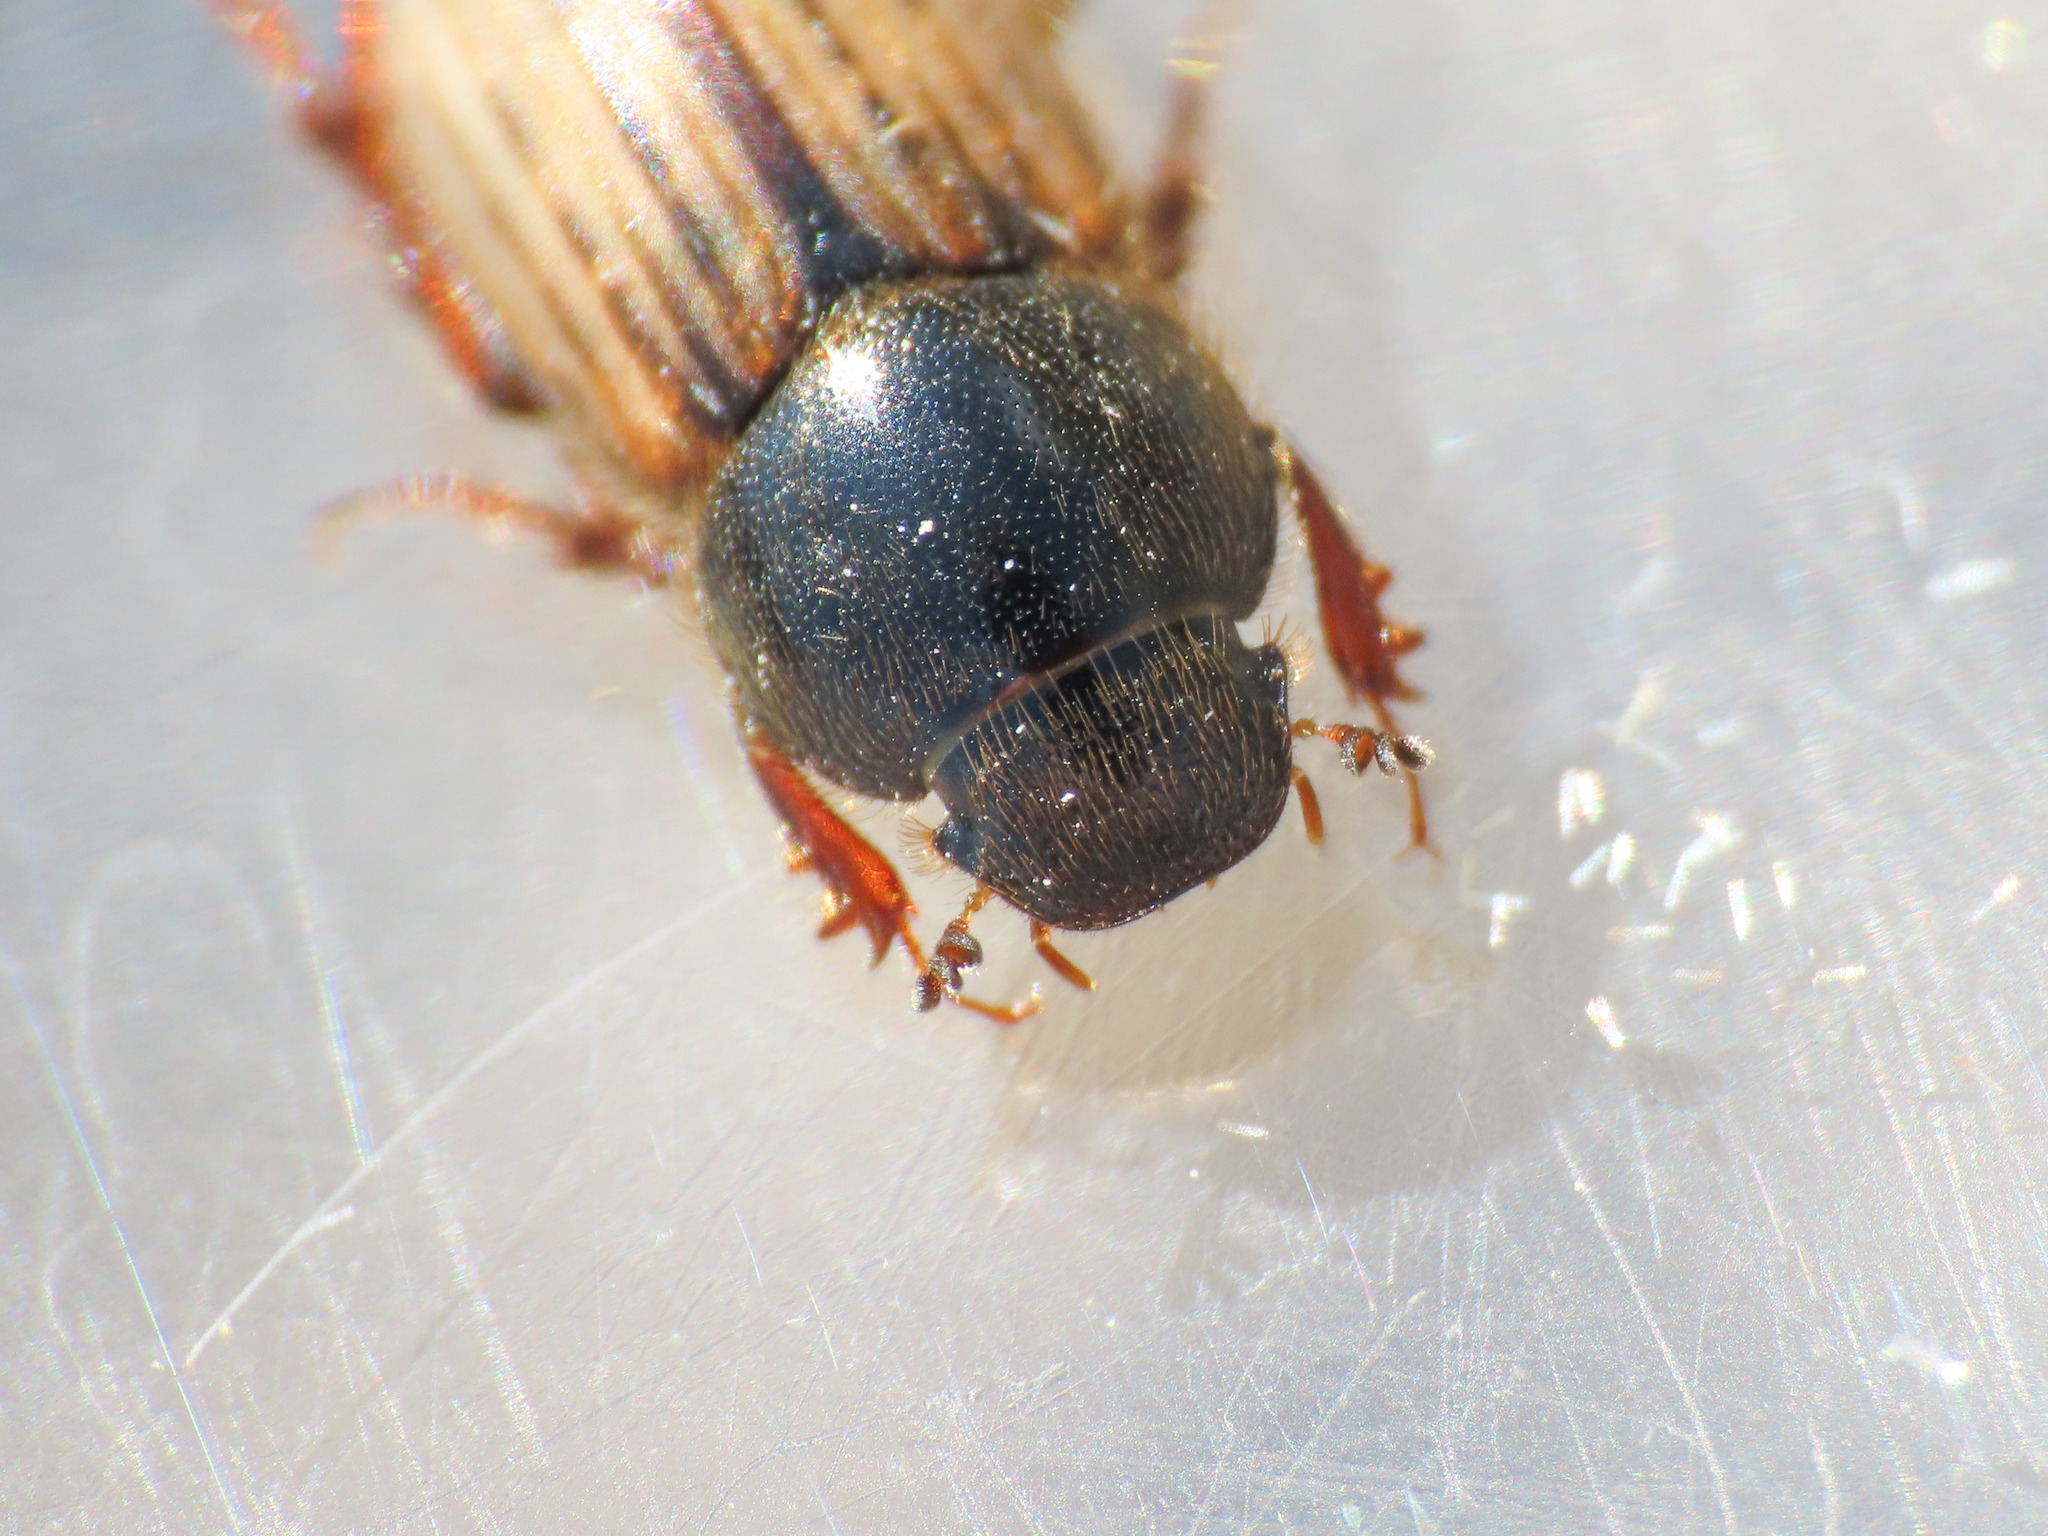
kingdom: Animalia
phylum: Arthropoda
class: Insecta
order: Coleoptera
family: Scarabaeidae
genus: Euheptaulacus
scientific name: Euheptaulacus carinatus
